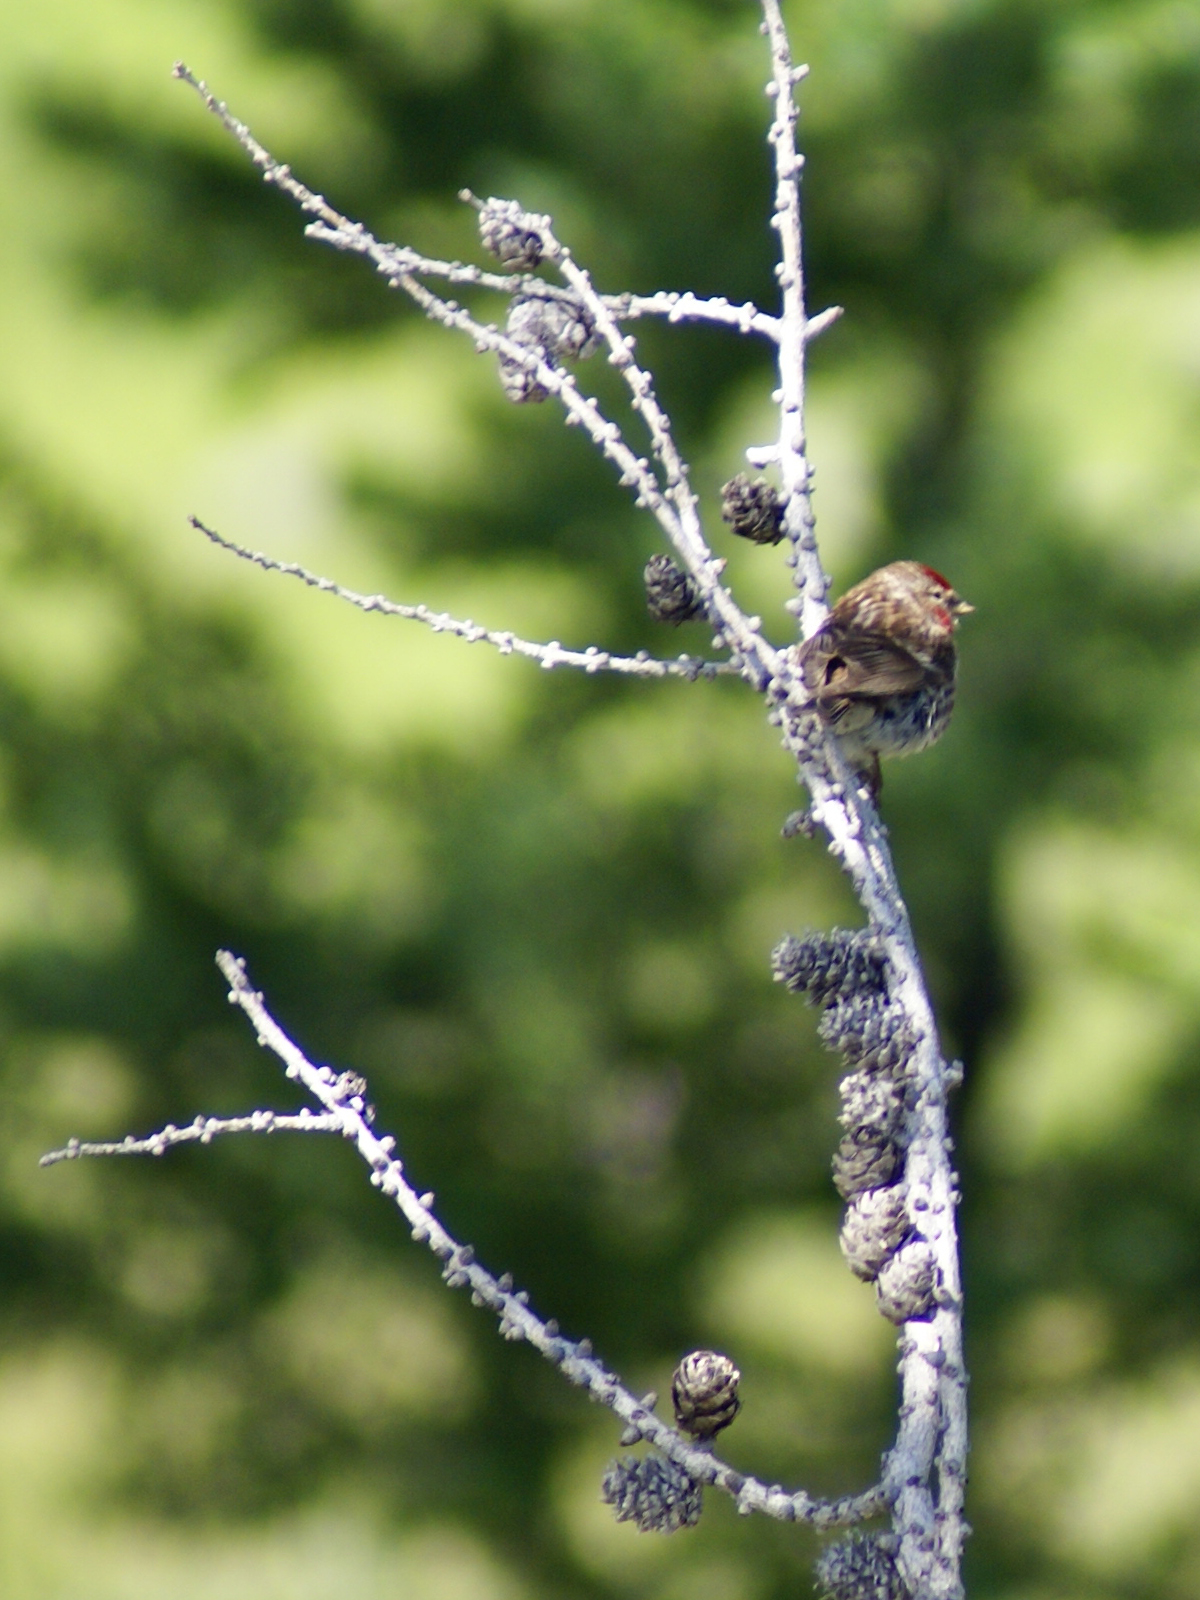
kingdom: Animalia
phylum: Chordata
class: Aves
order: Passeriformes
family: Fringillidae
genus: Acanthis
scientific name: Acanthis flammea
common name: Common redpoll
